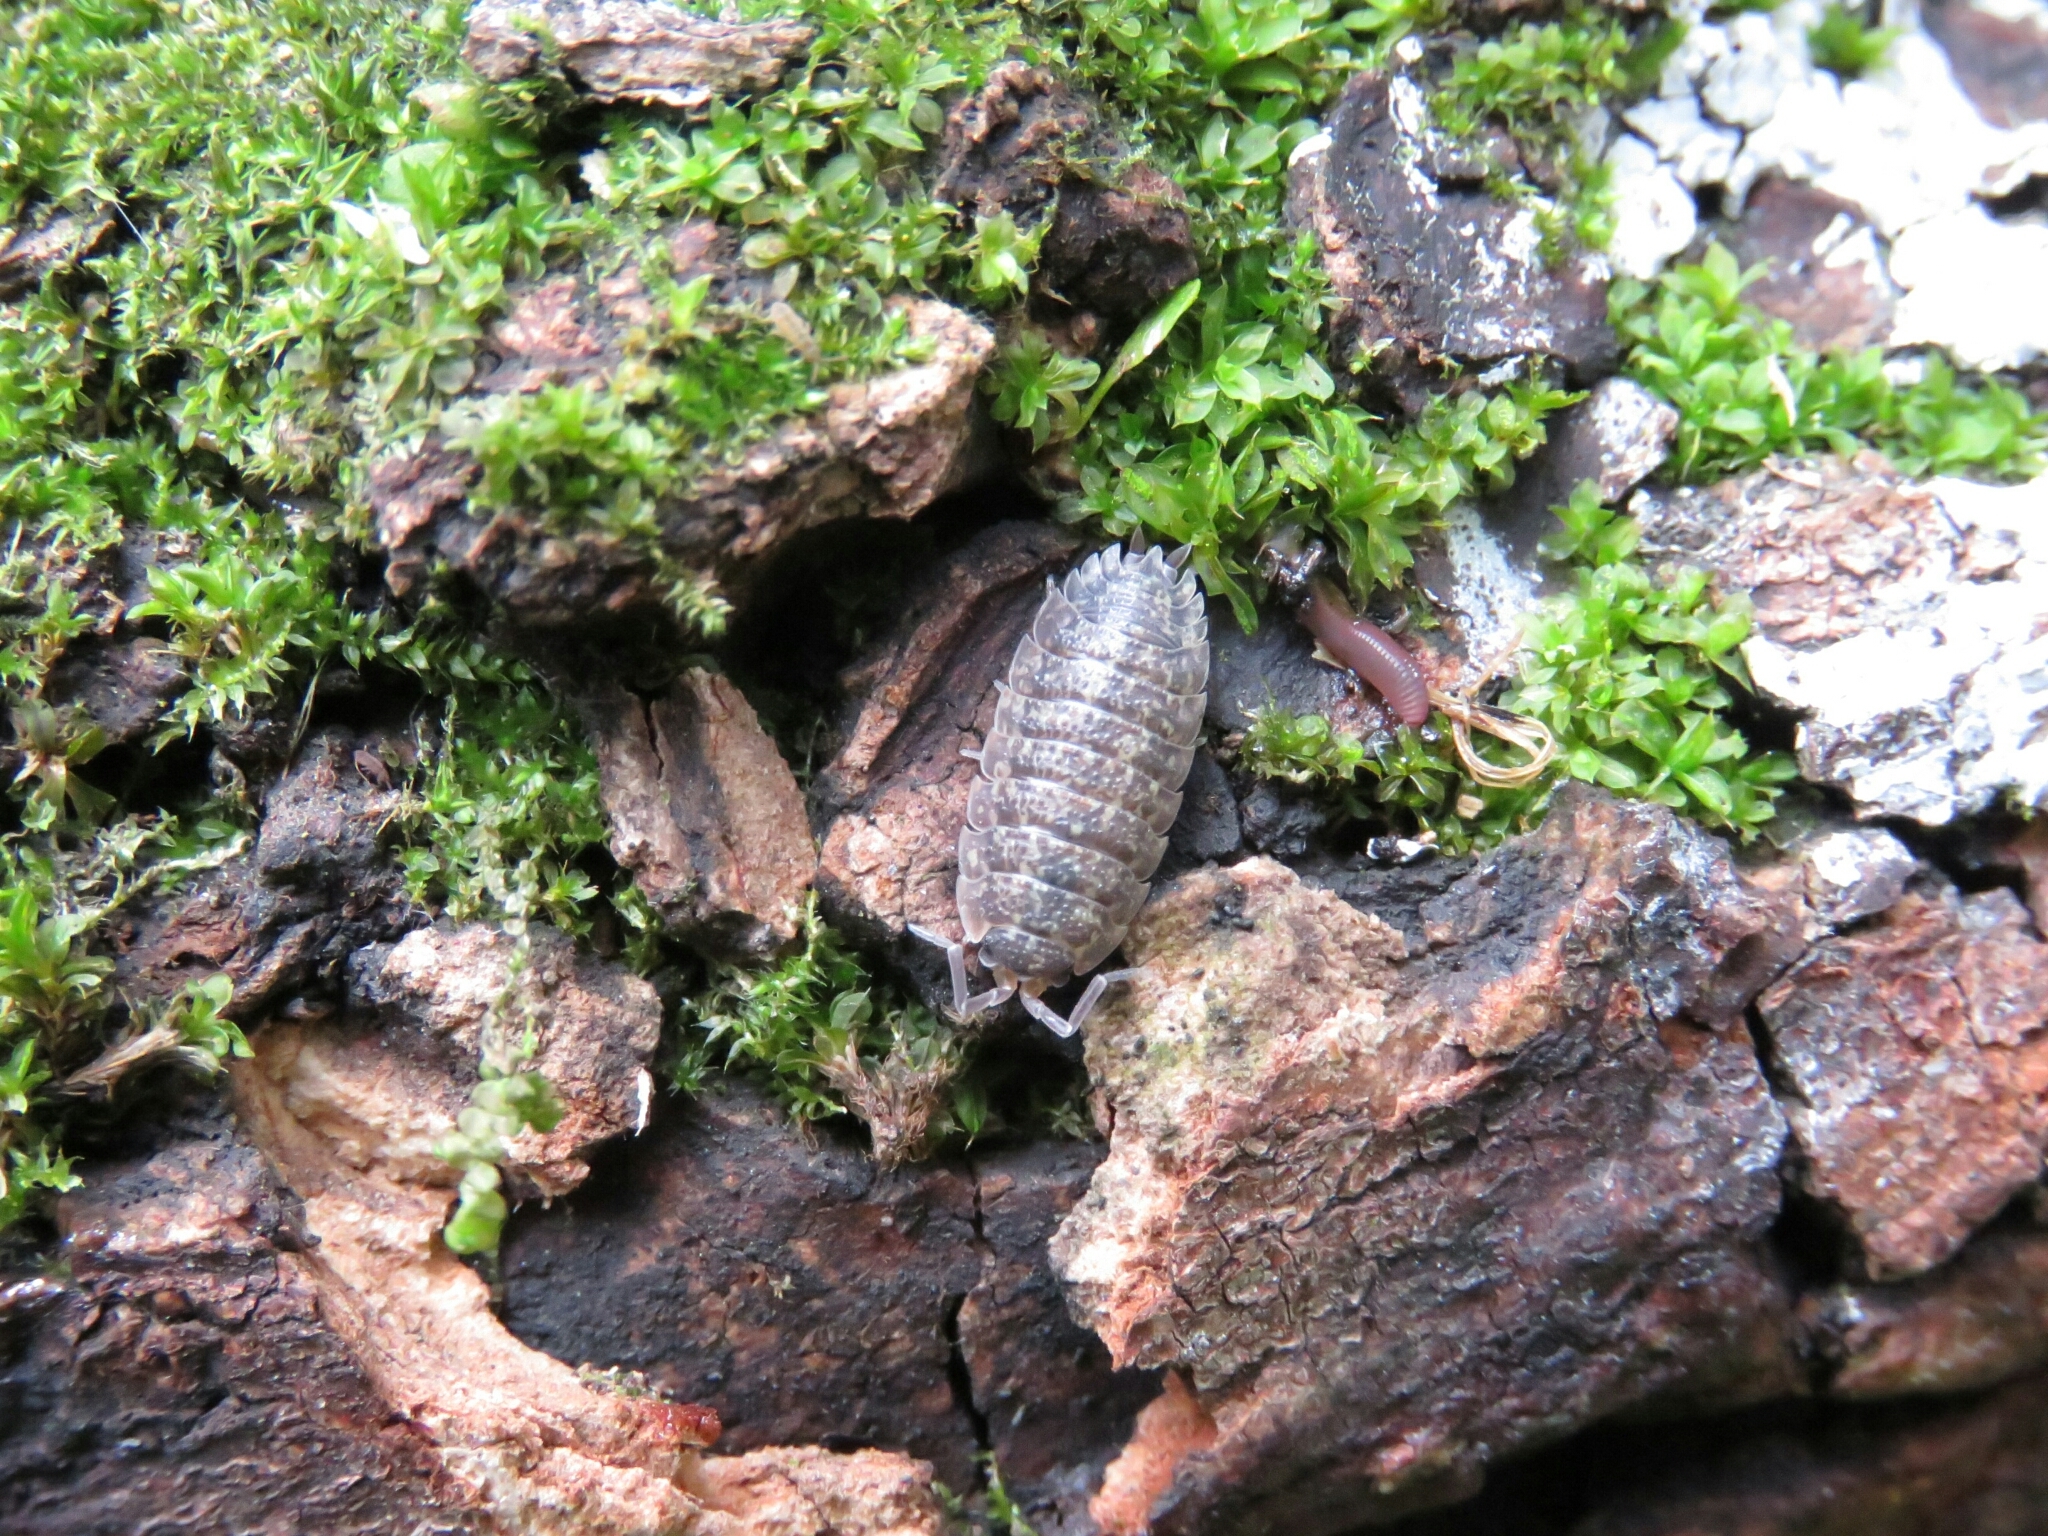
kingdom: Animalia
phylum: Arthropoda
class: Malacostraca
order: Isopoda
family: Porcellionidae
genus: Porcellio
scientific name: Porcellio scaber
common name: Common rough woodlouse
